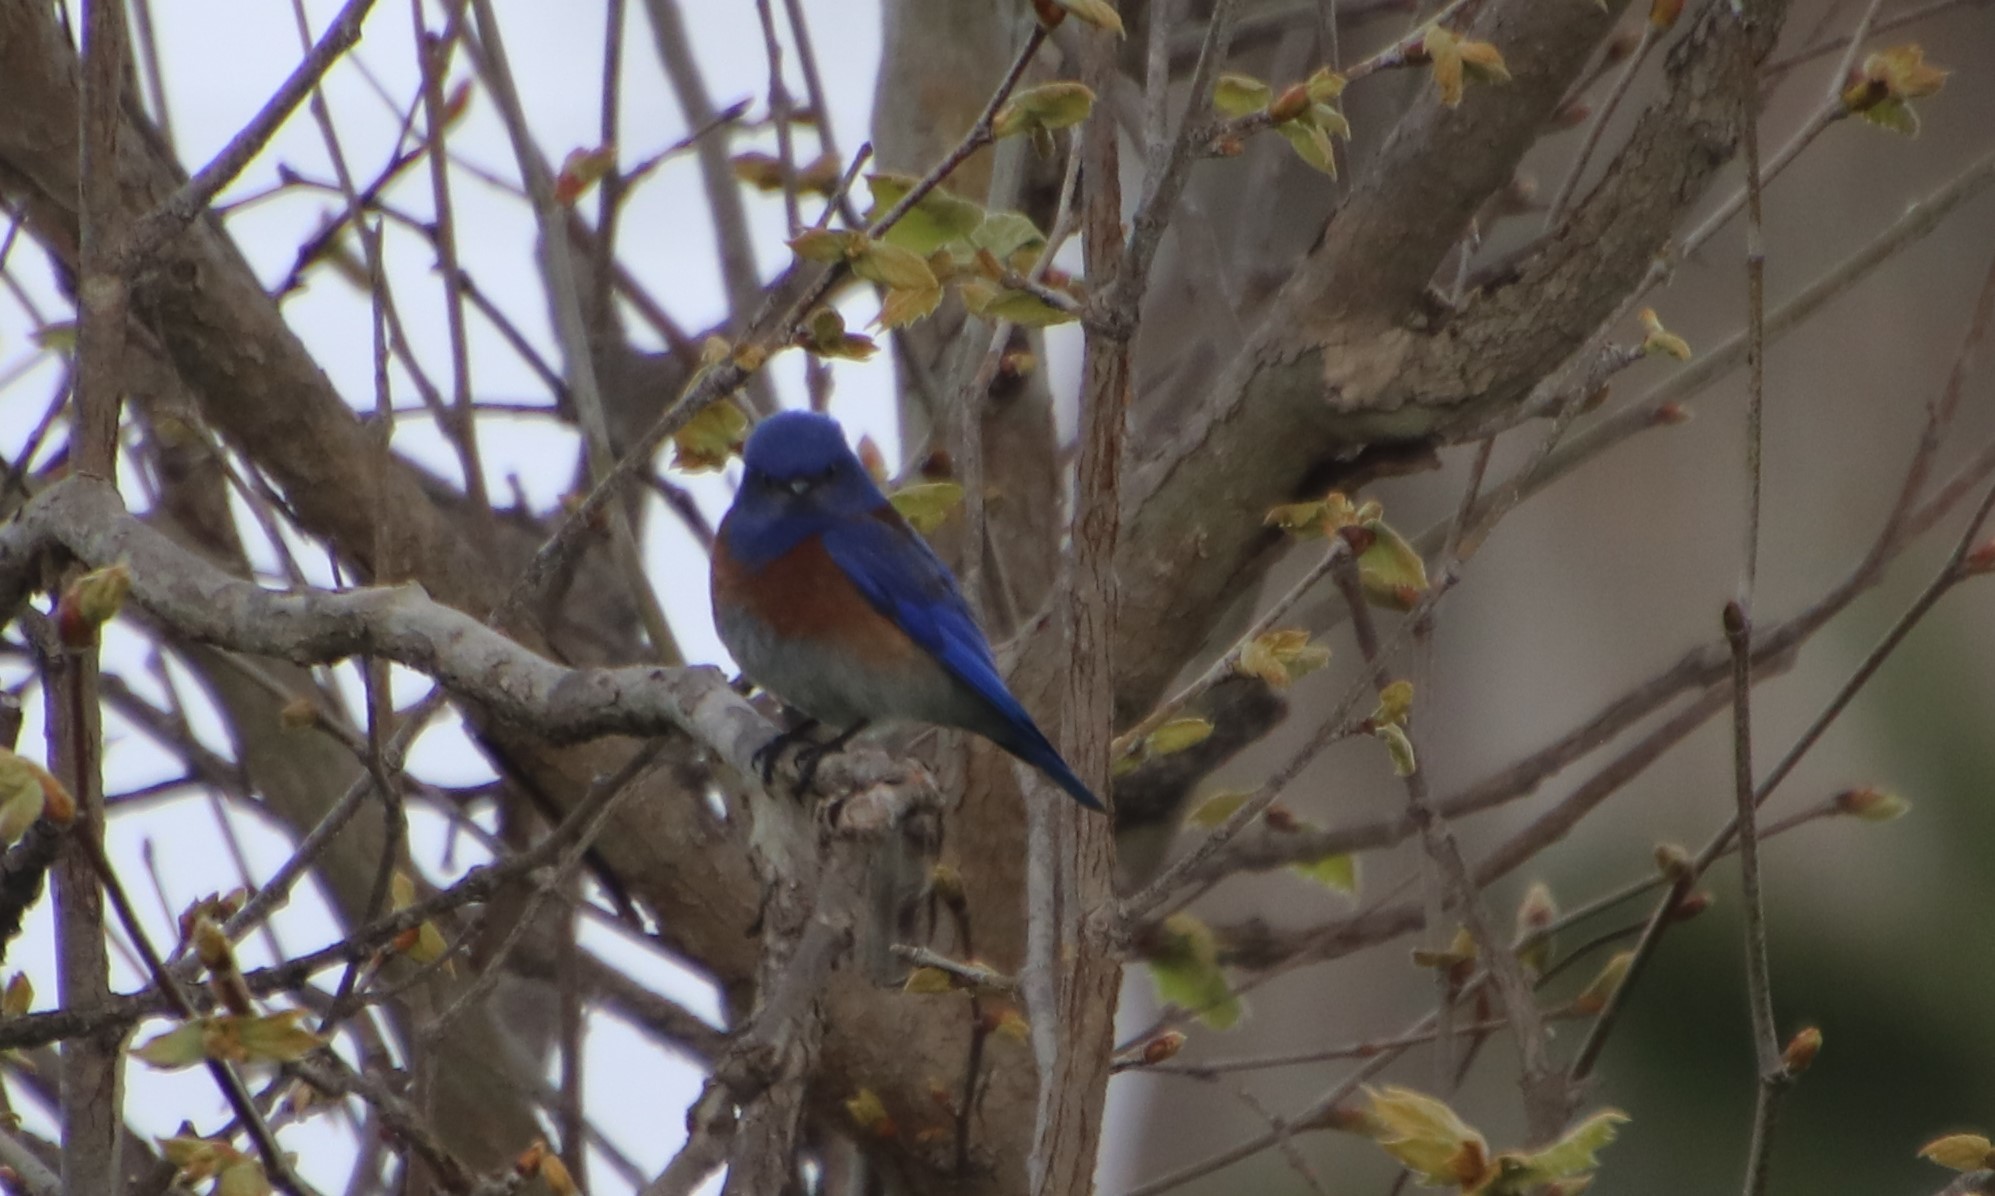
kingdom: Animalia
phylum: Chordata
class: Aves
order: Passeriformes
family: Turdidae
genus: Sialia
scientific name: Sialia mexicana
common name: Western bluebird
